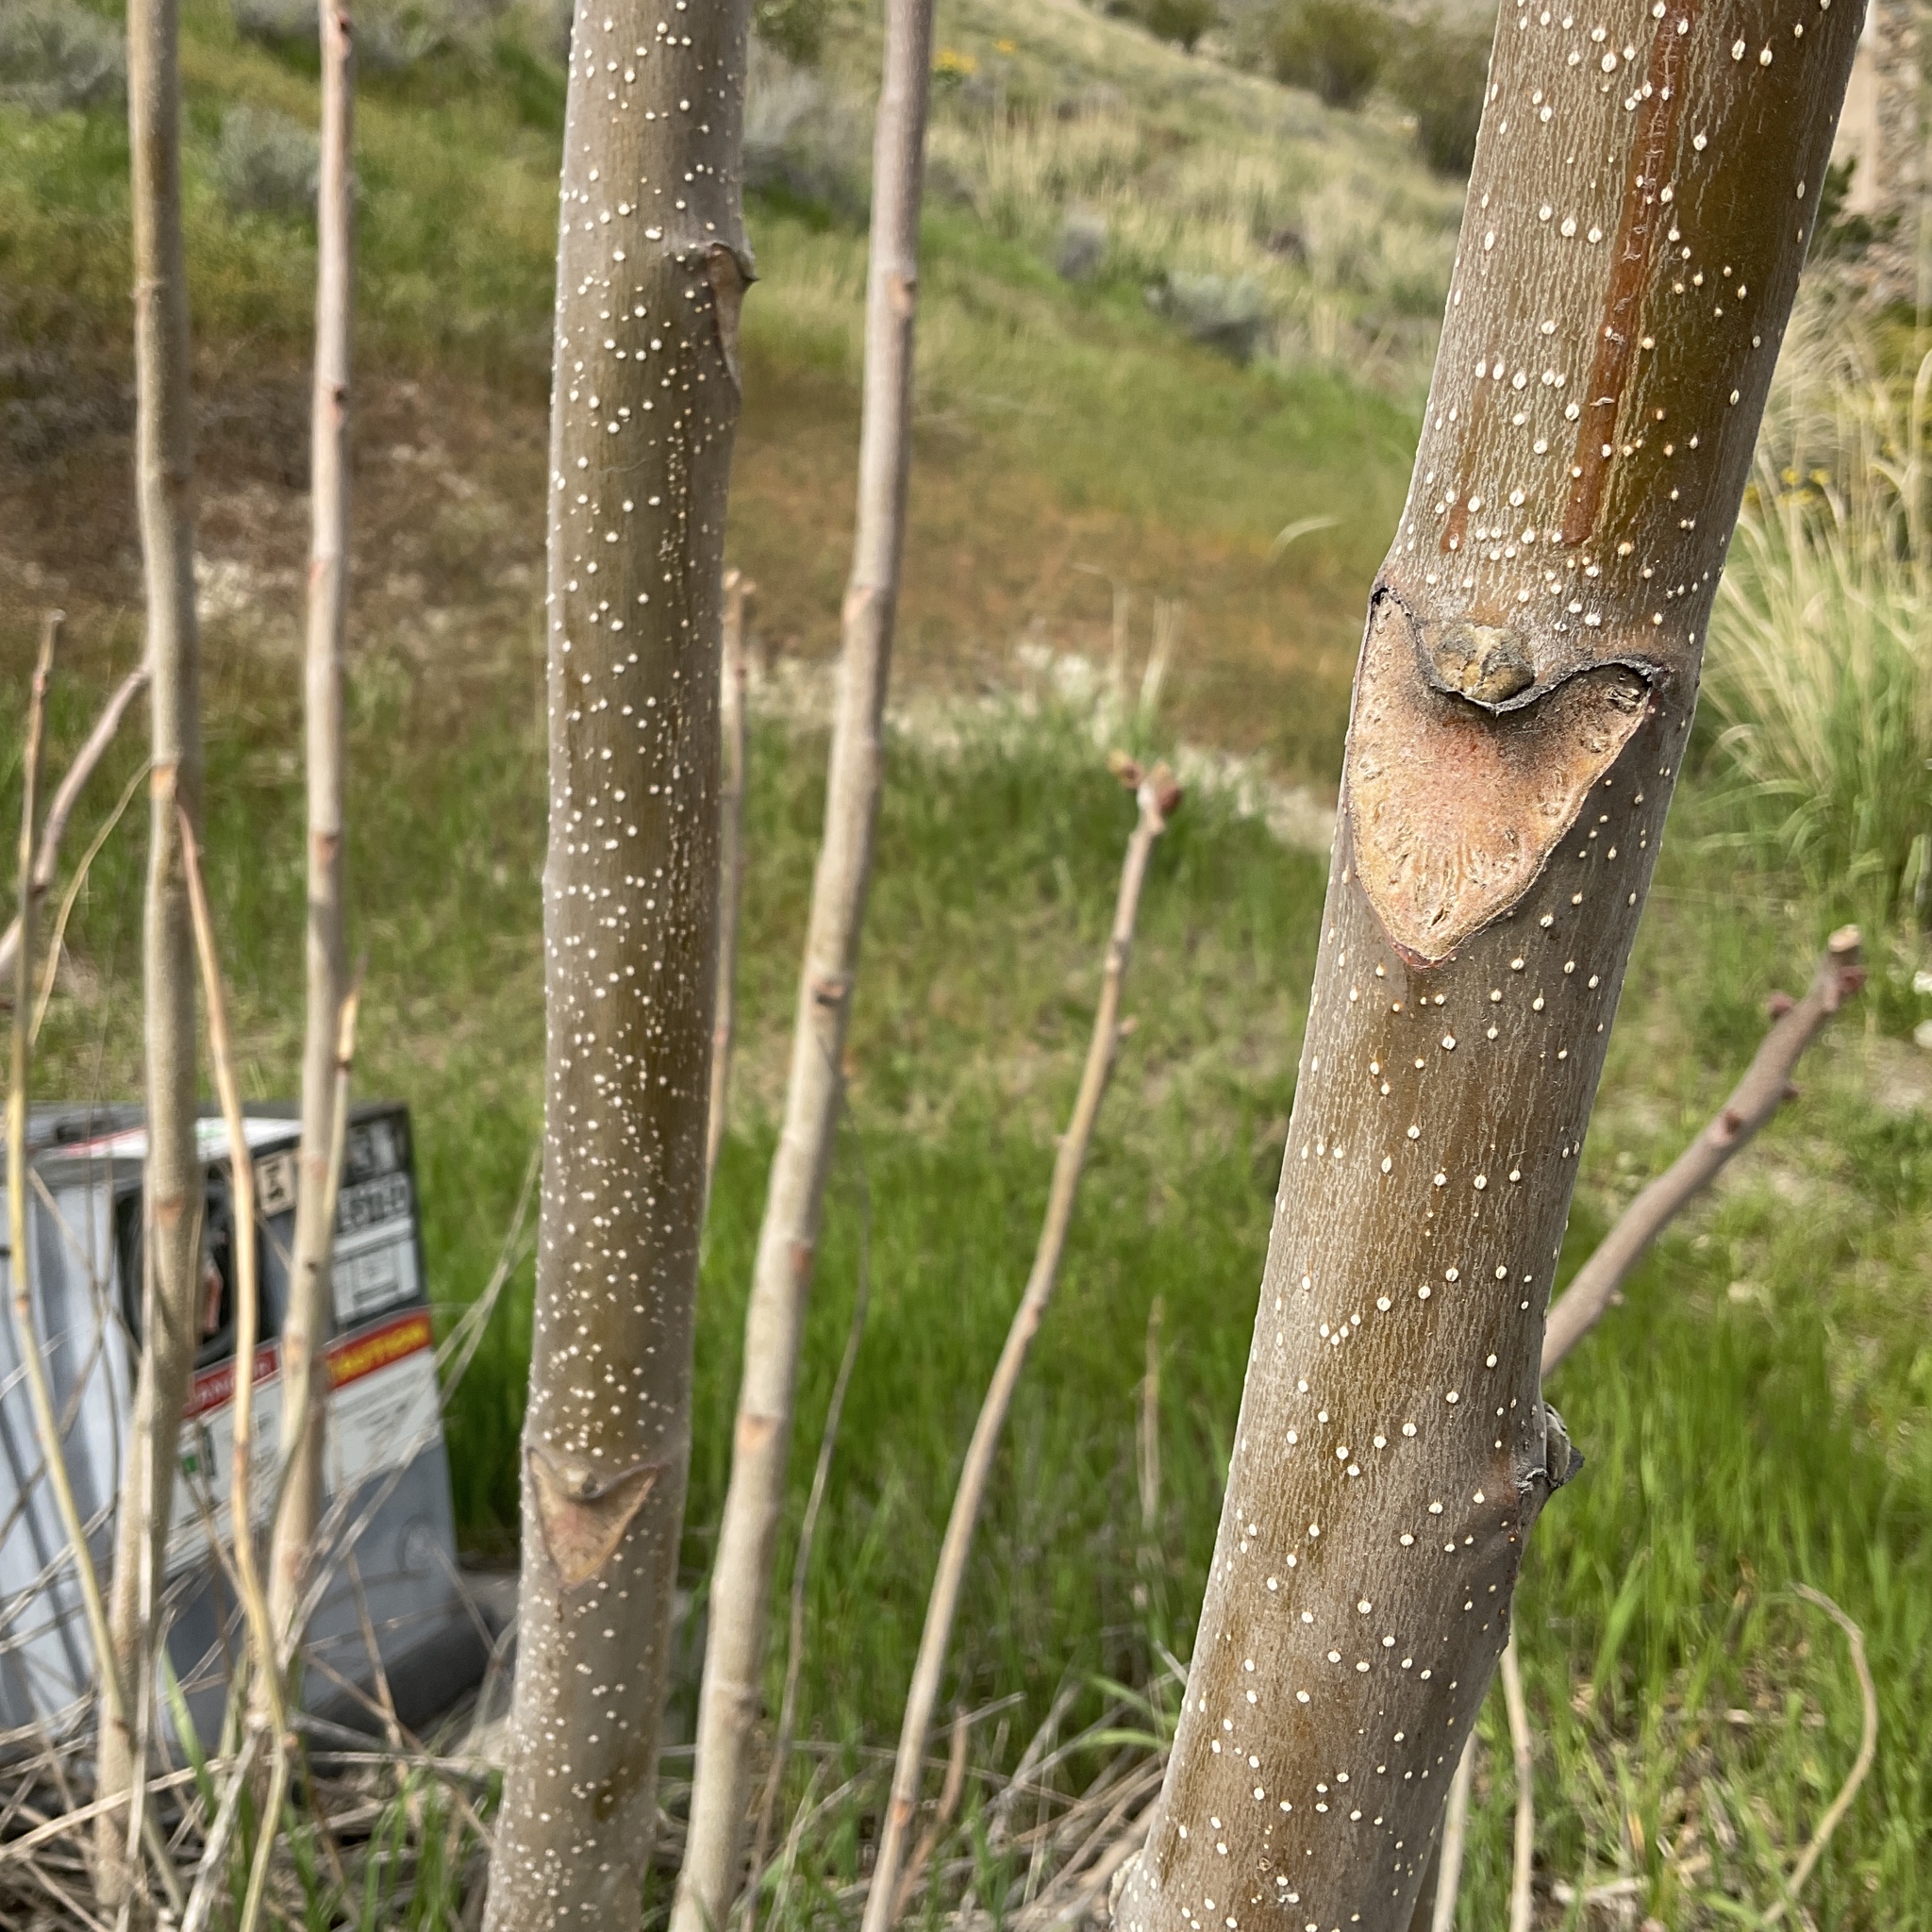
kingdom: Plantae
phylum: Tracheophyta
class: Magnoliopsida
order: Sapindales
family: Simaroubaceae
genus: Ailanthus
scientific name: Ailanthus altissima
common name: Tree-of-heaven
